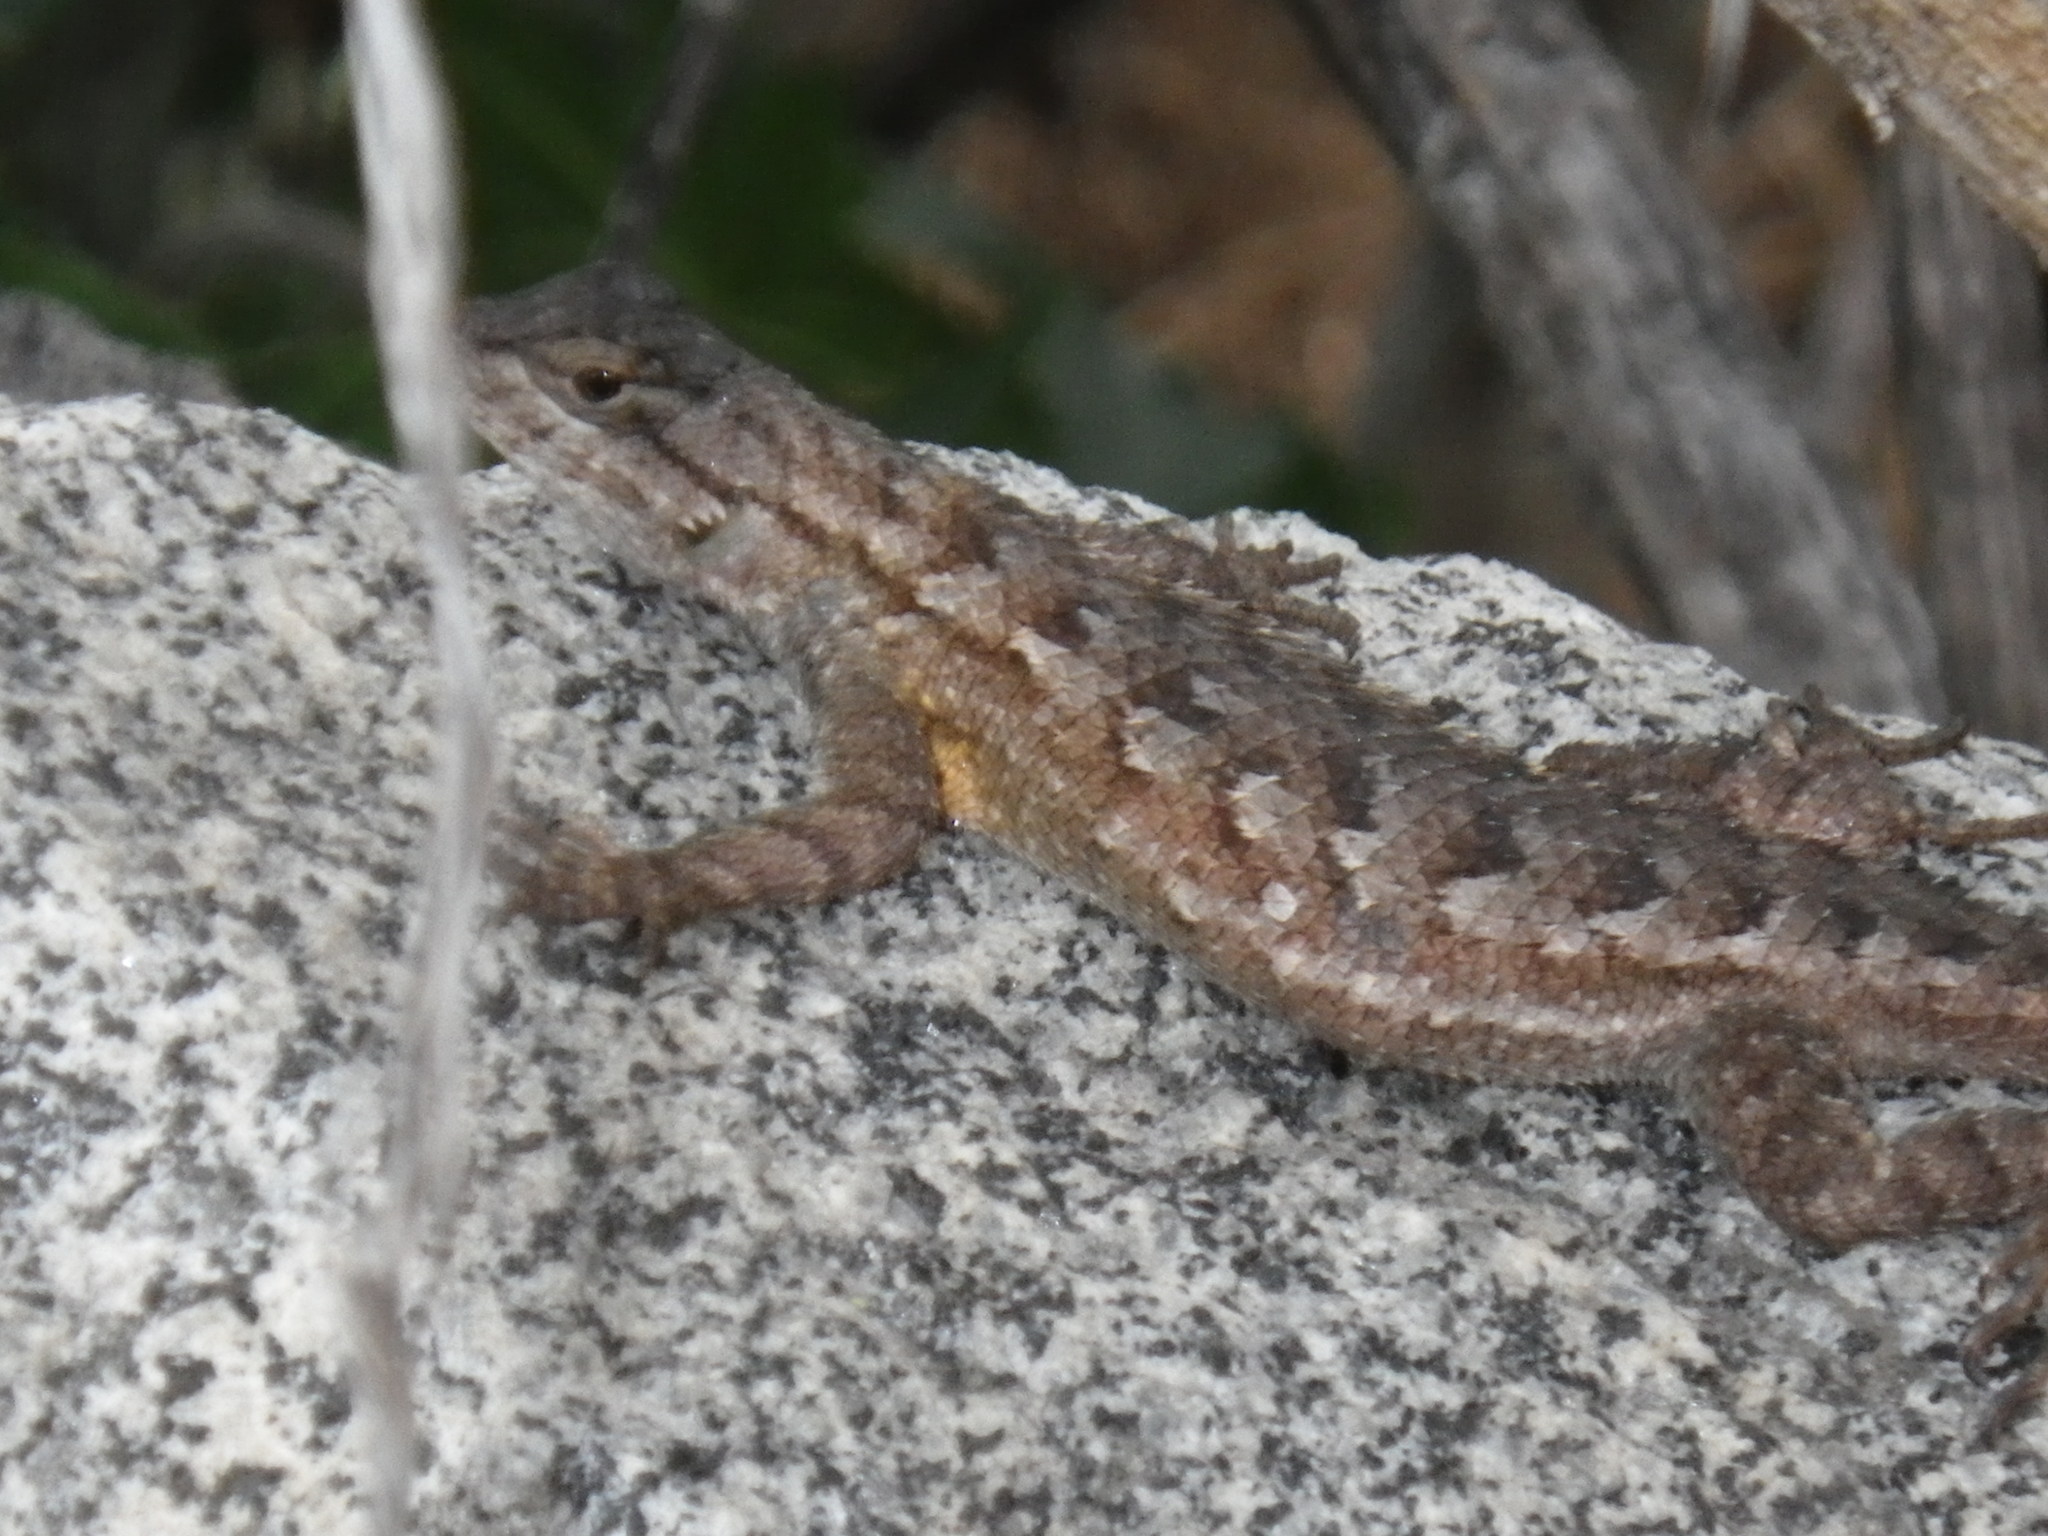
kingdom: Animalia
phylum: Chordata
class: Squamata
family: Phrynosomatidae
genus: Sceloporus
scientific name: Sceloporus occidentalis
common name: Western fence lizard
